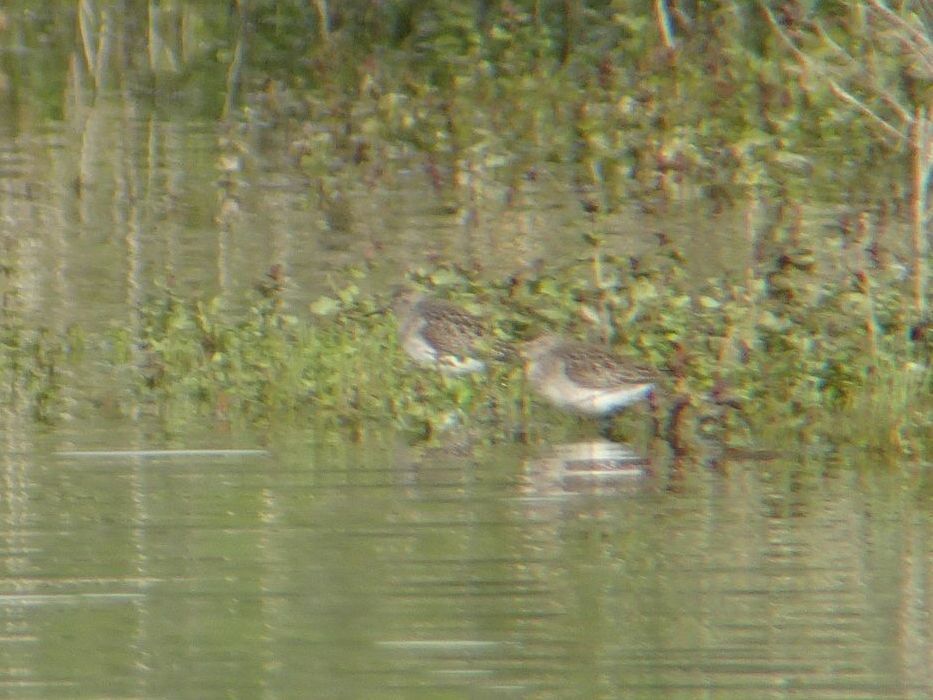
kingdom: Animalia
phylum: Chordata
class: Aves
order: Charadriiformes
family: Scolopacidae
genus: Tringa
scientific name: Tringa glareola
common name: Wood sandpiper
